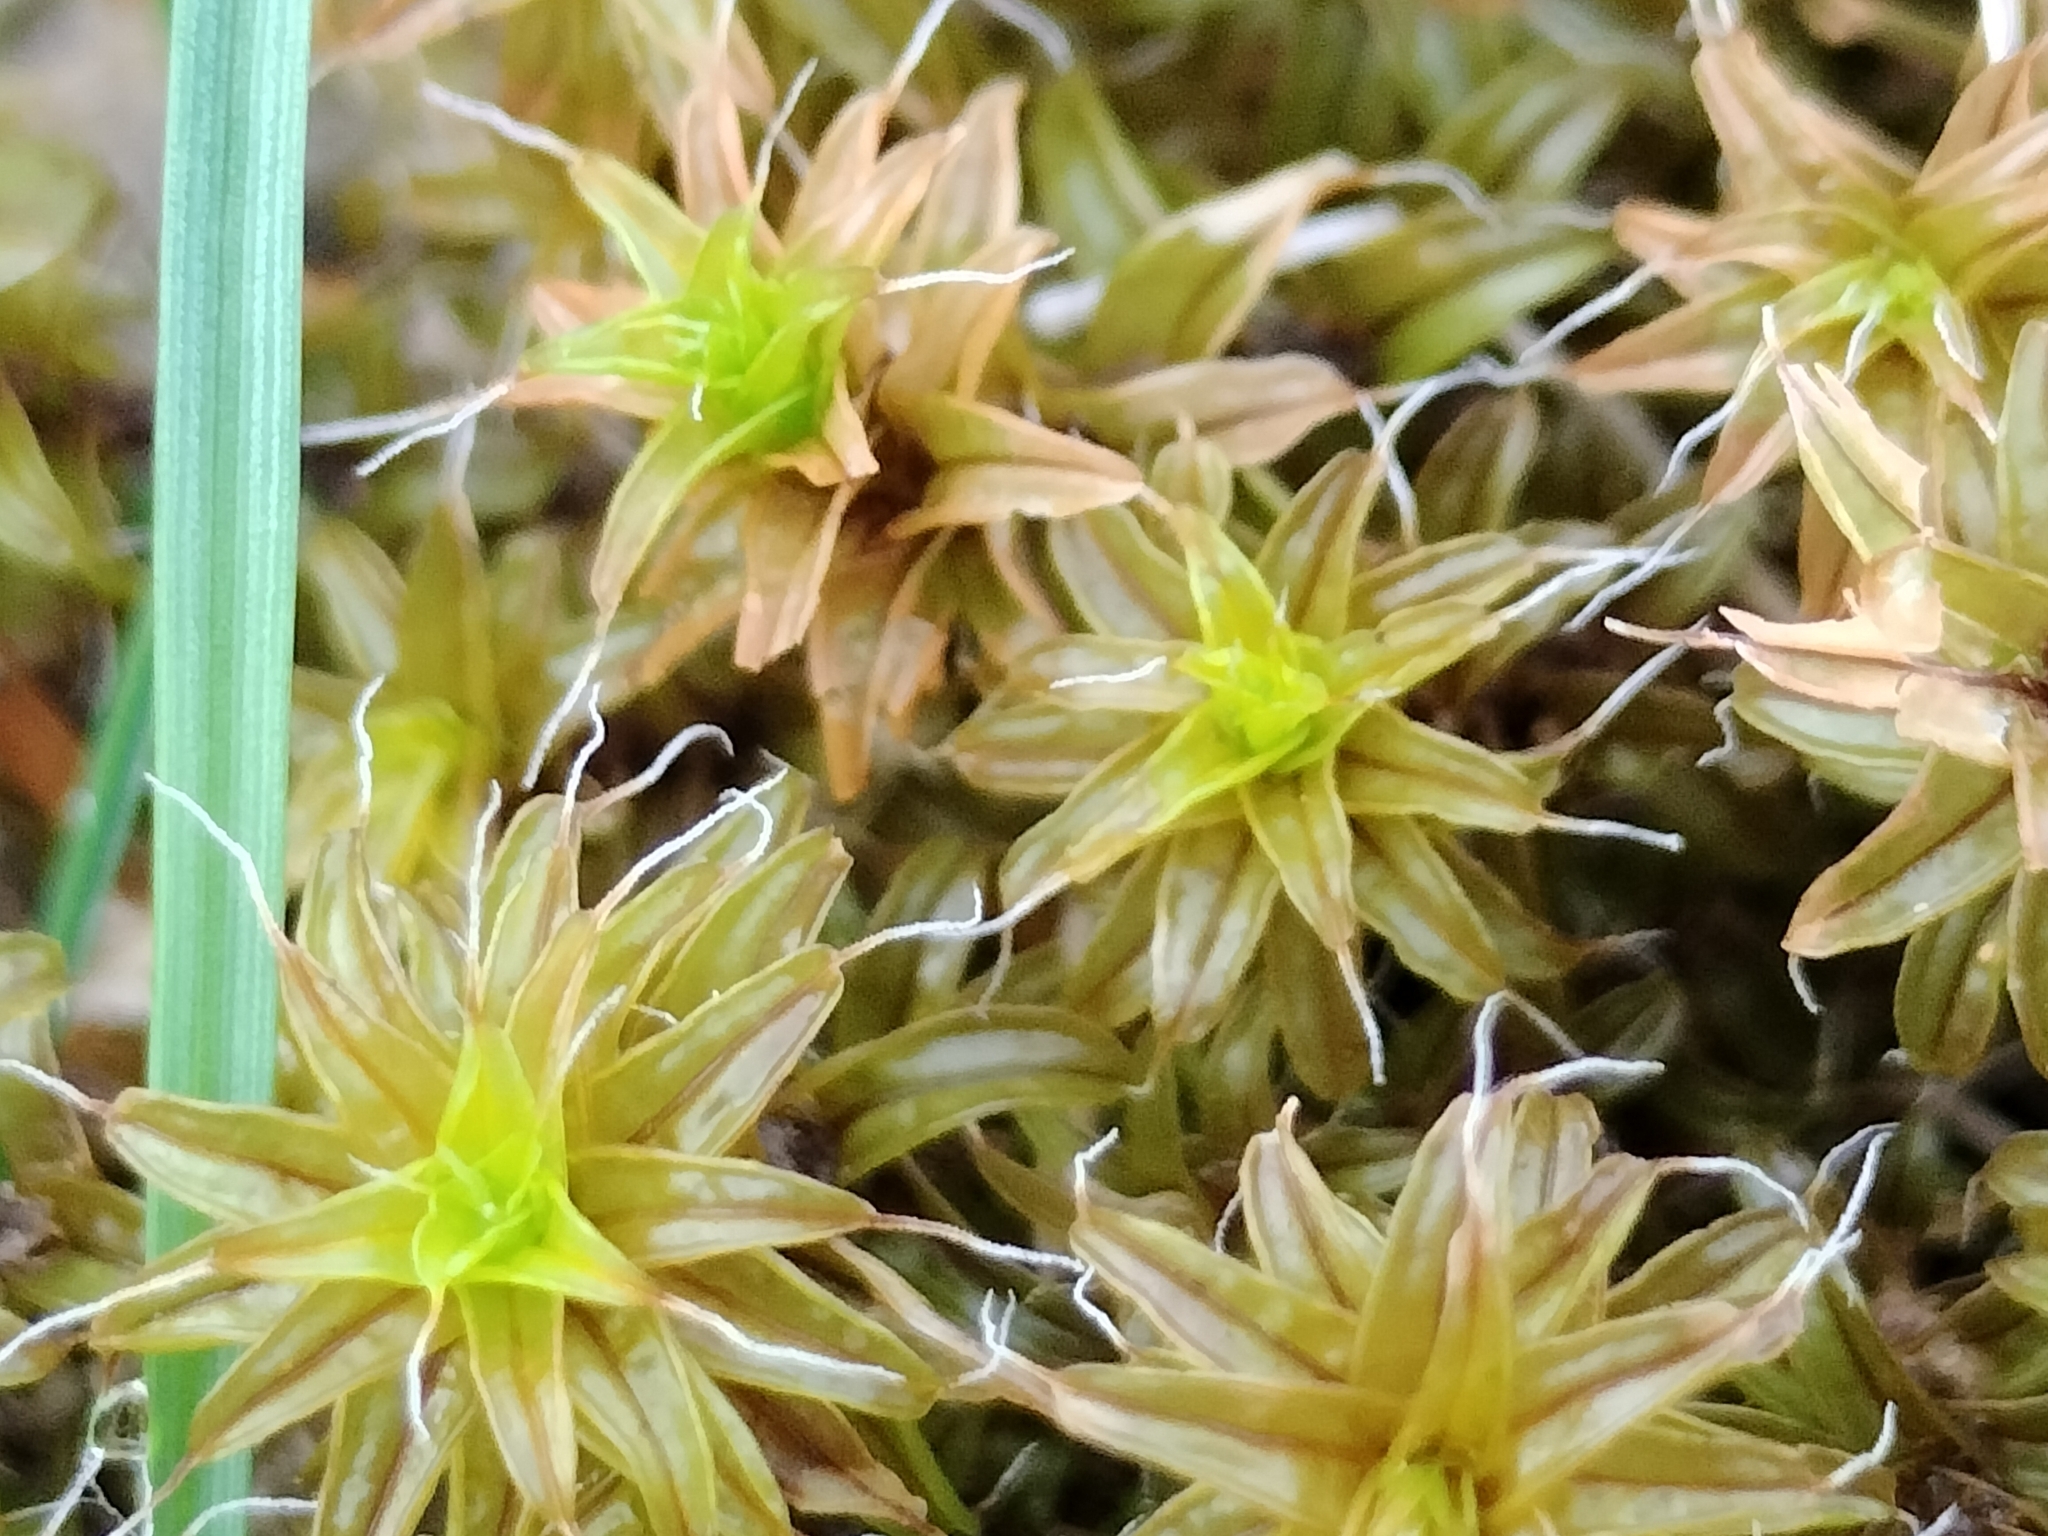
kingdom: Plantae
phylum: Bryophyta
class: Bryopsida
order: Pottiales
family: Pottiaceae
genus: Syntrichia
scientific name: Syntrichia ruralis
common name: Sidewalk screw moss
